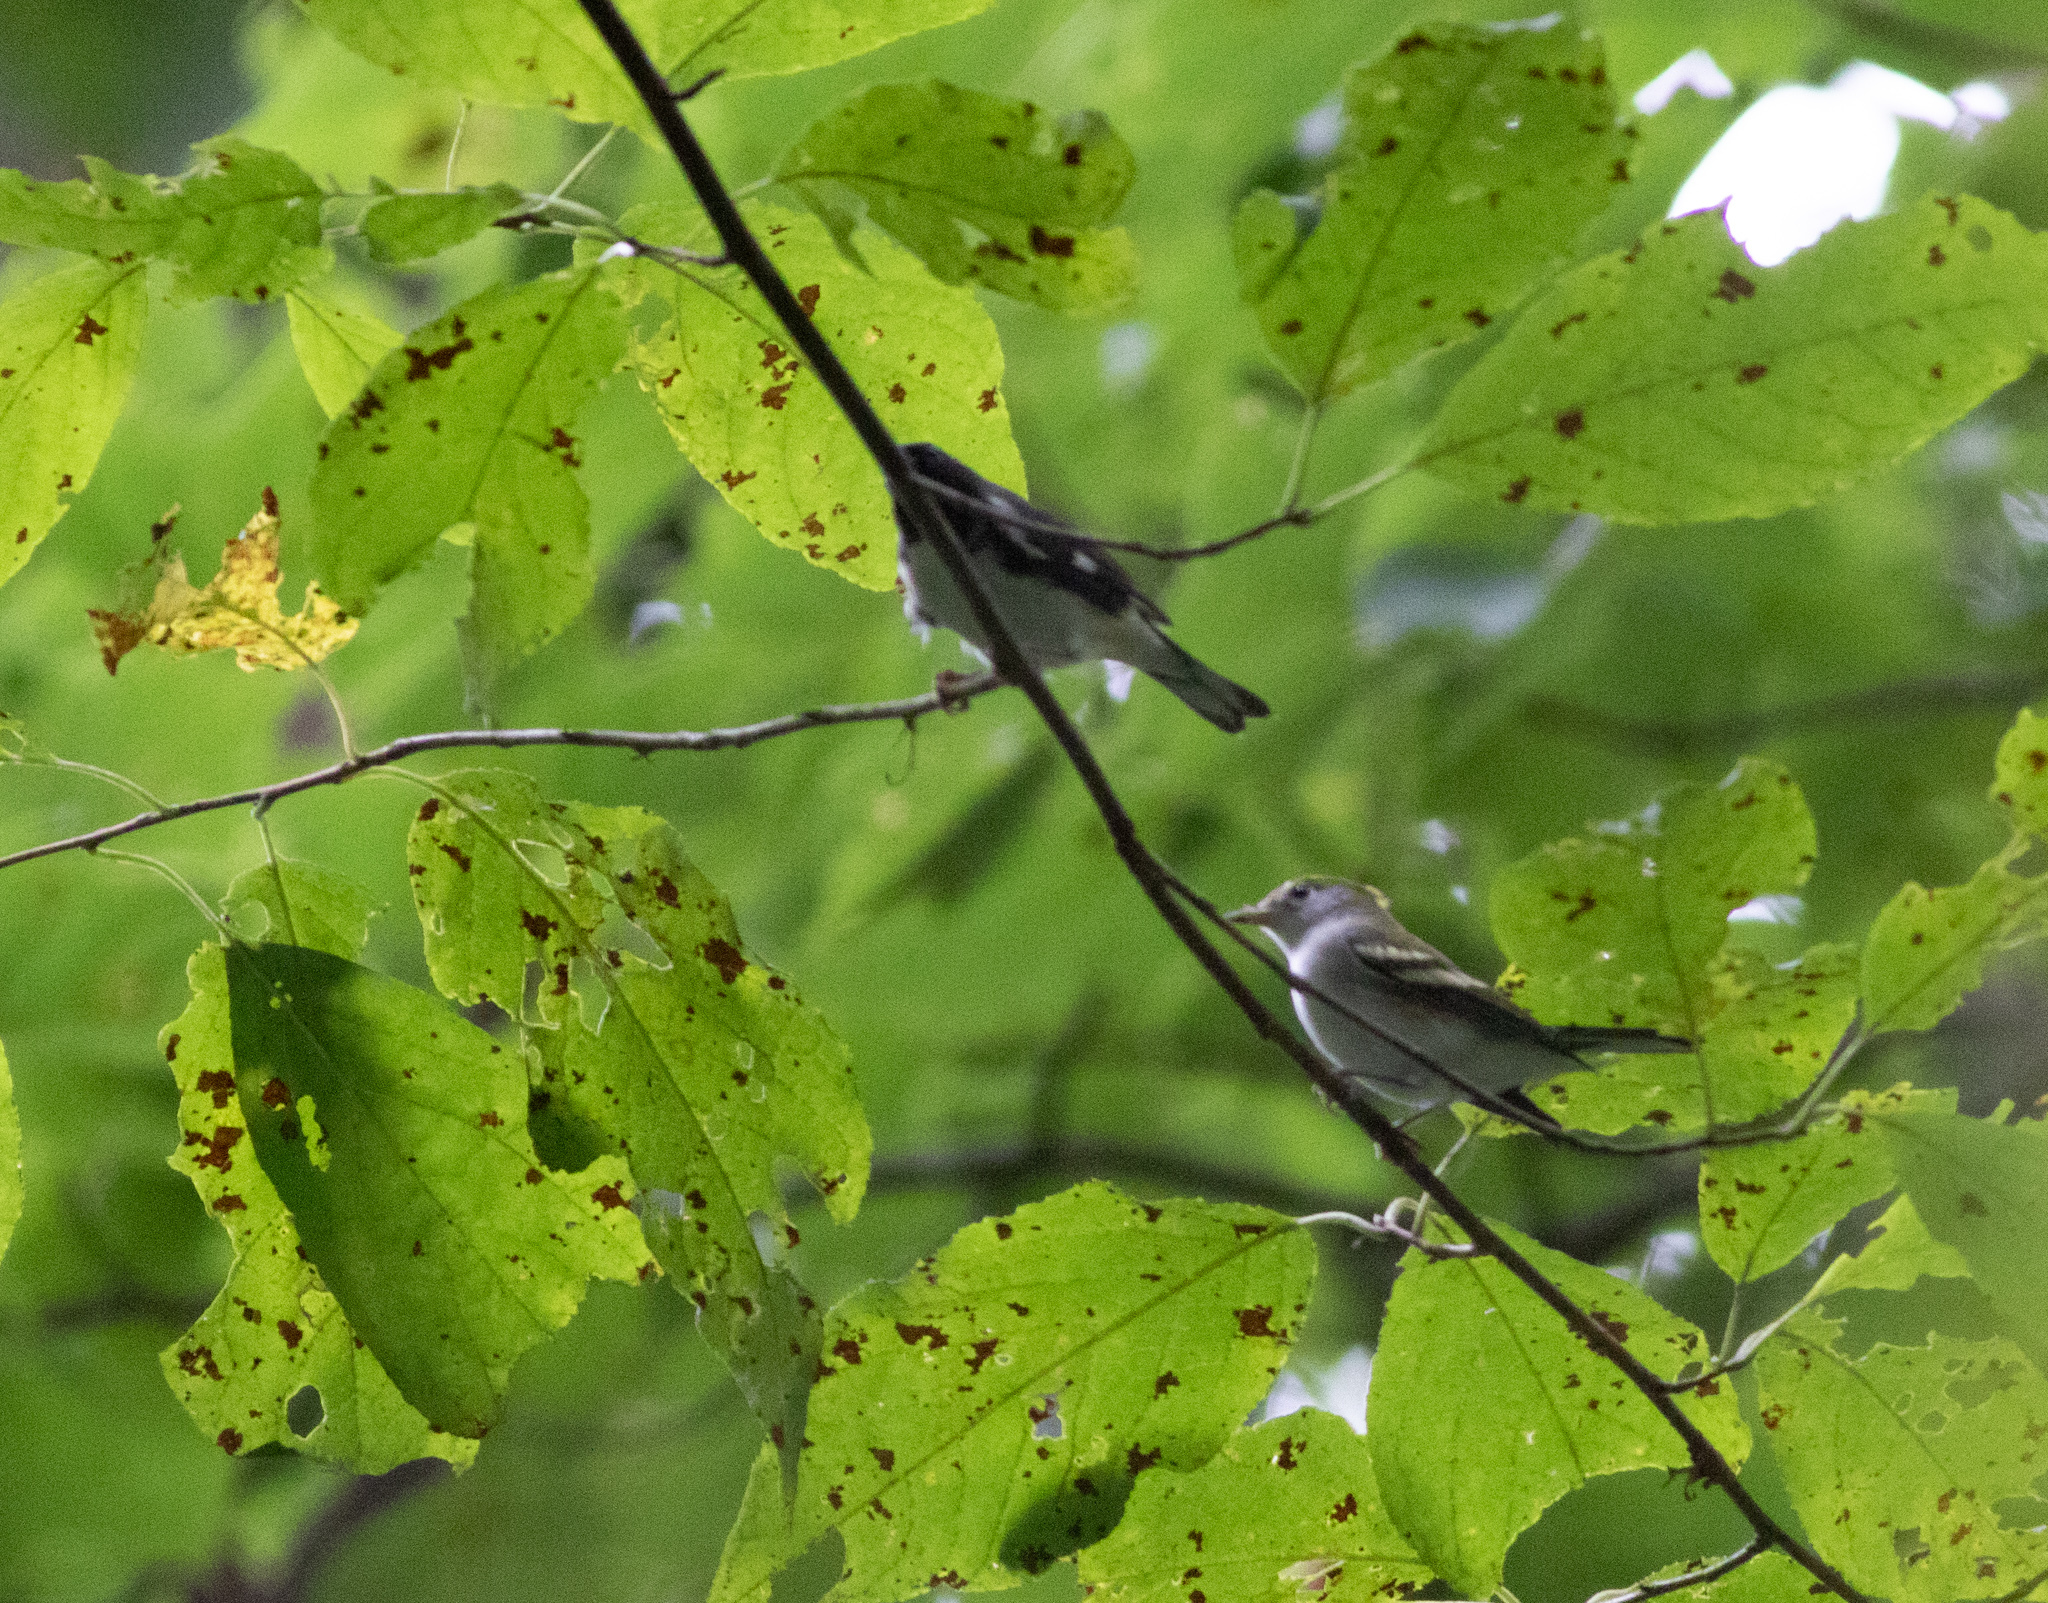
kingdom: Animalia
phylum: Chordata
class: Aves
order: Passeriformes
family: Parulidae
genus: Setophaga
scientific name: Setophaga pensylvanica
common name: Chestnut-sided warbler
